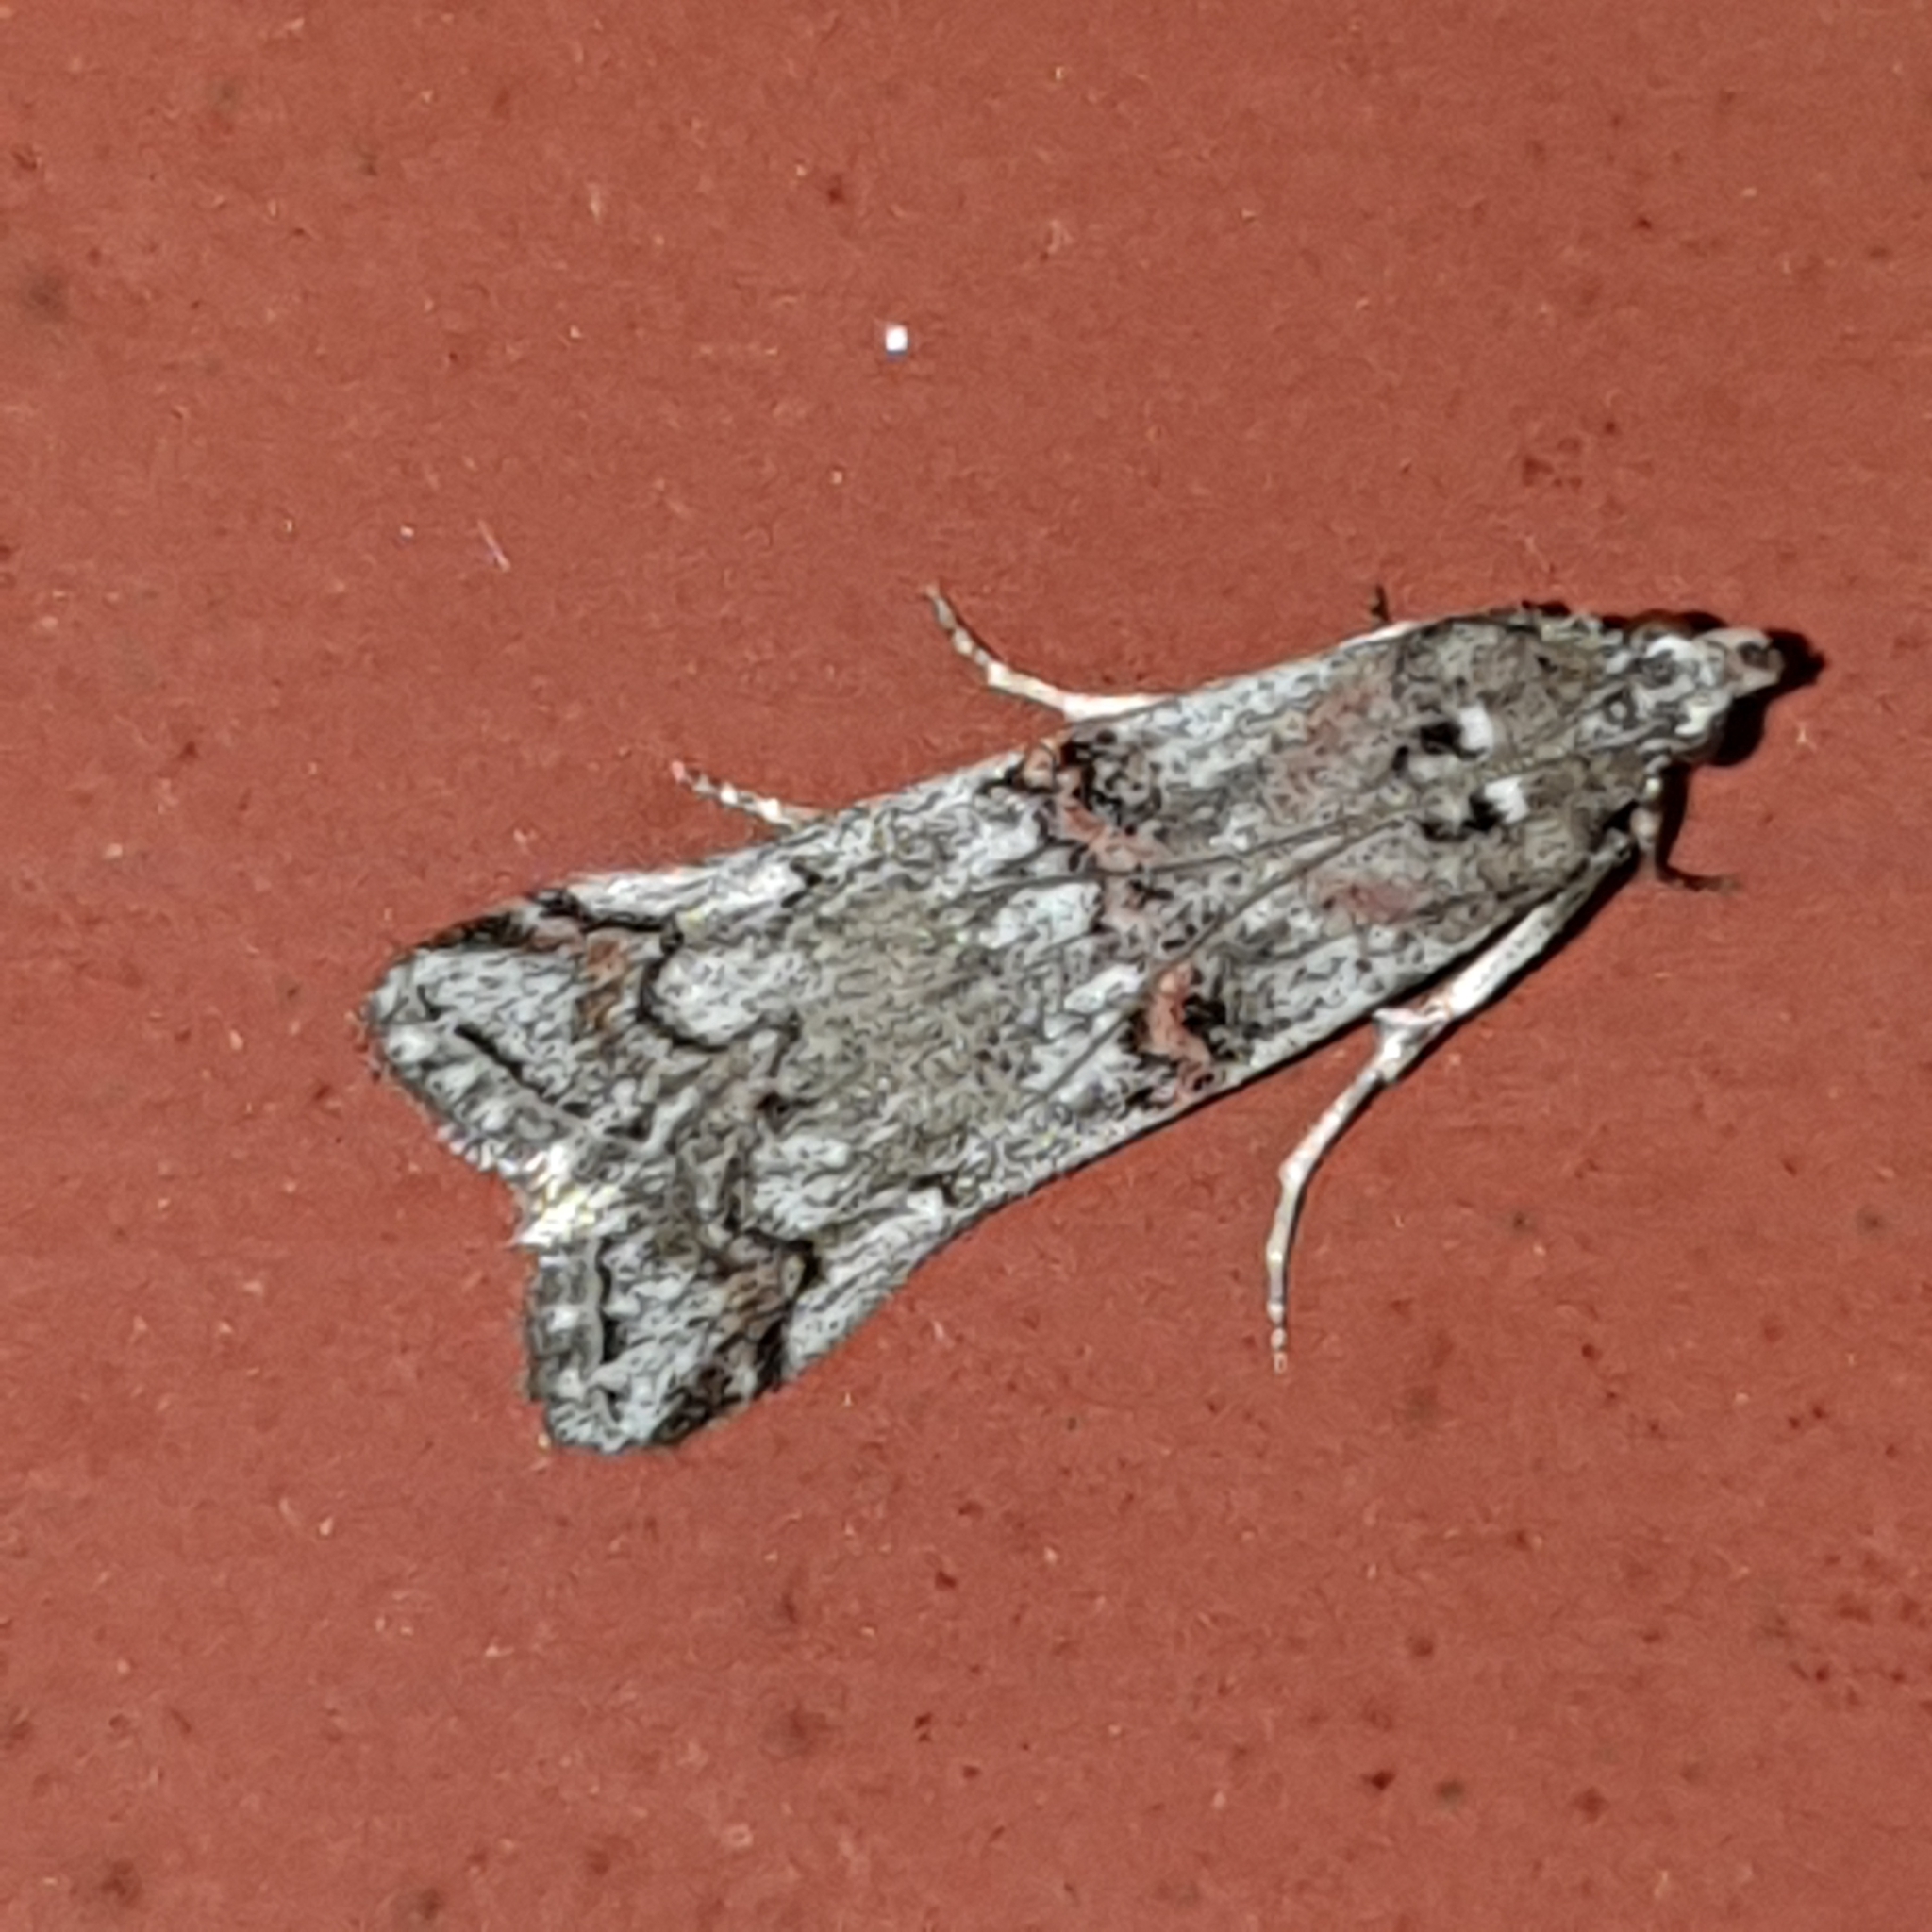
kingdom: Animalia
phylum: Arthropoda
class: Insecta
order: Lepidoptera
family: Pyralidae
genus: Pempelia
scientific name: Pempelia palumbella
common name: Heather knot-horn
